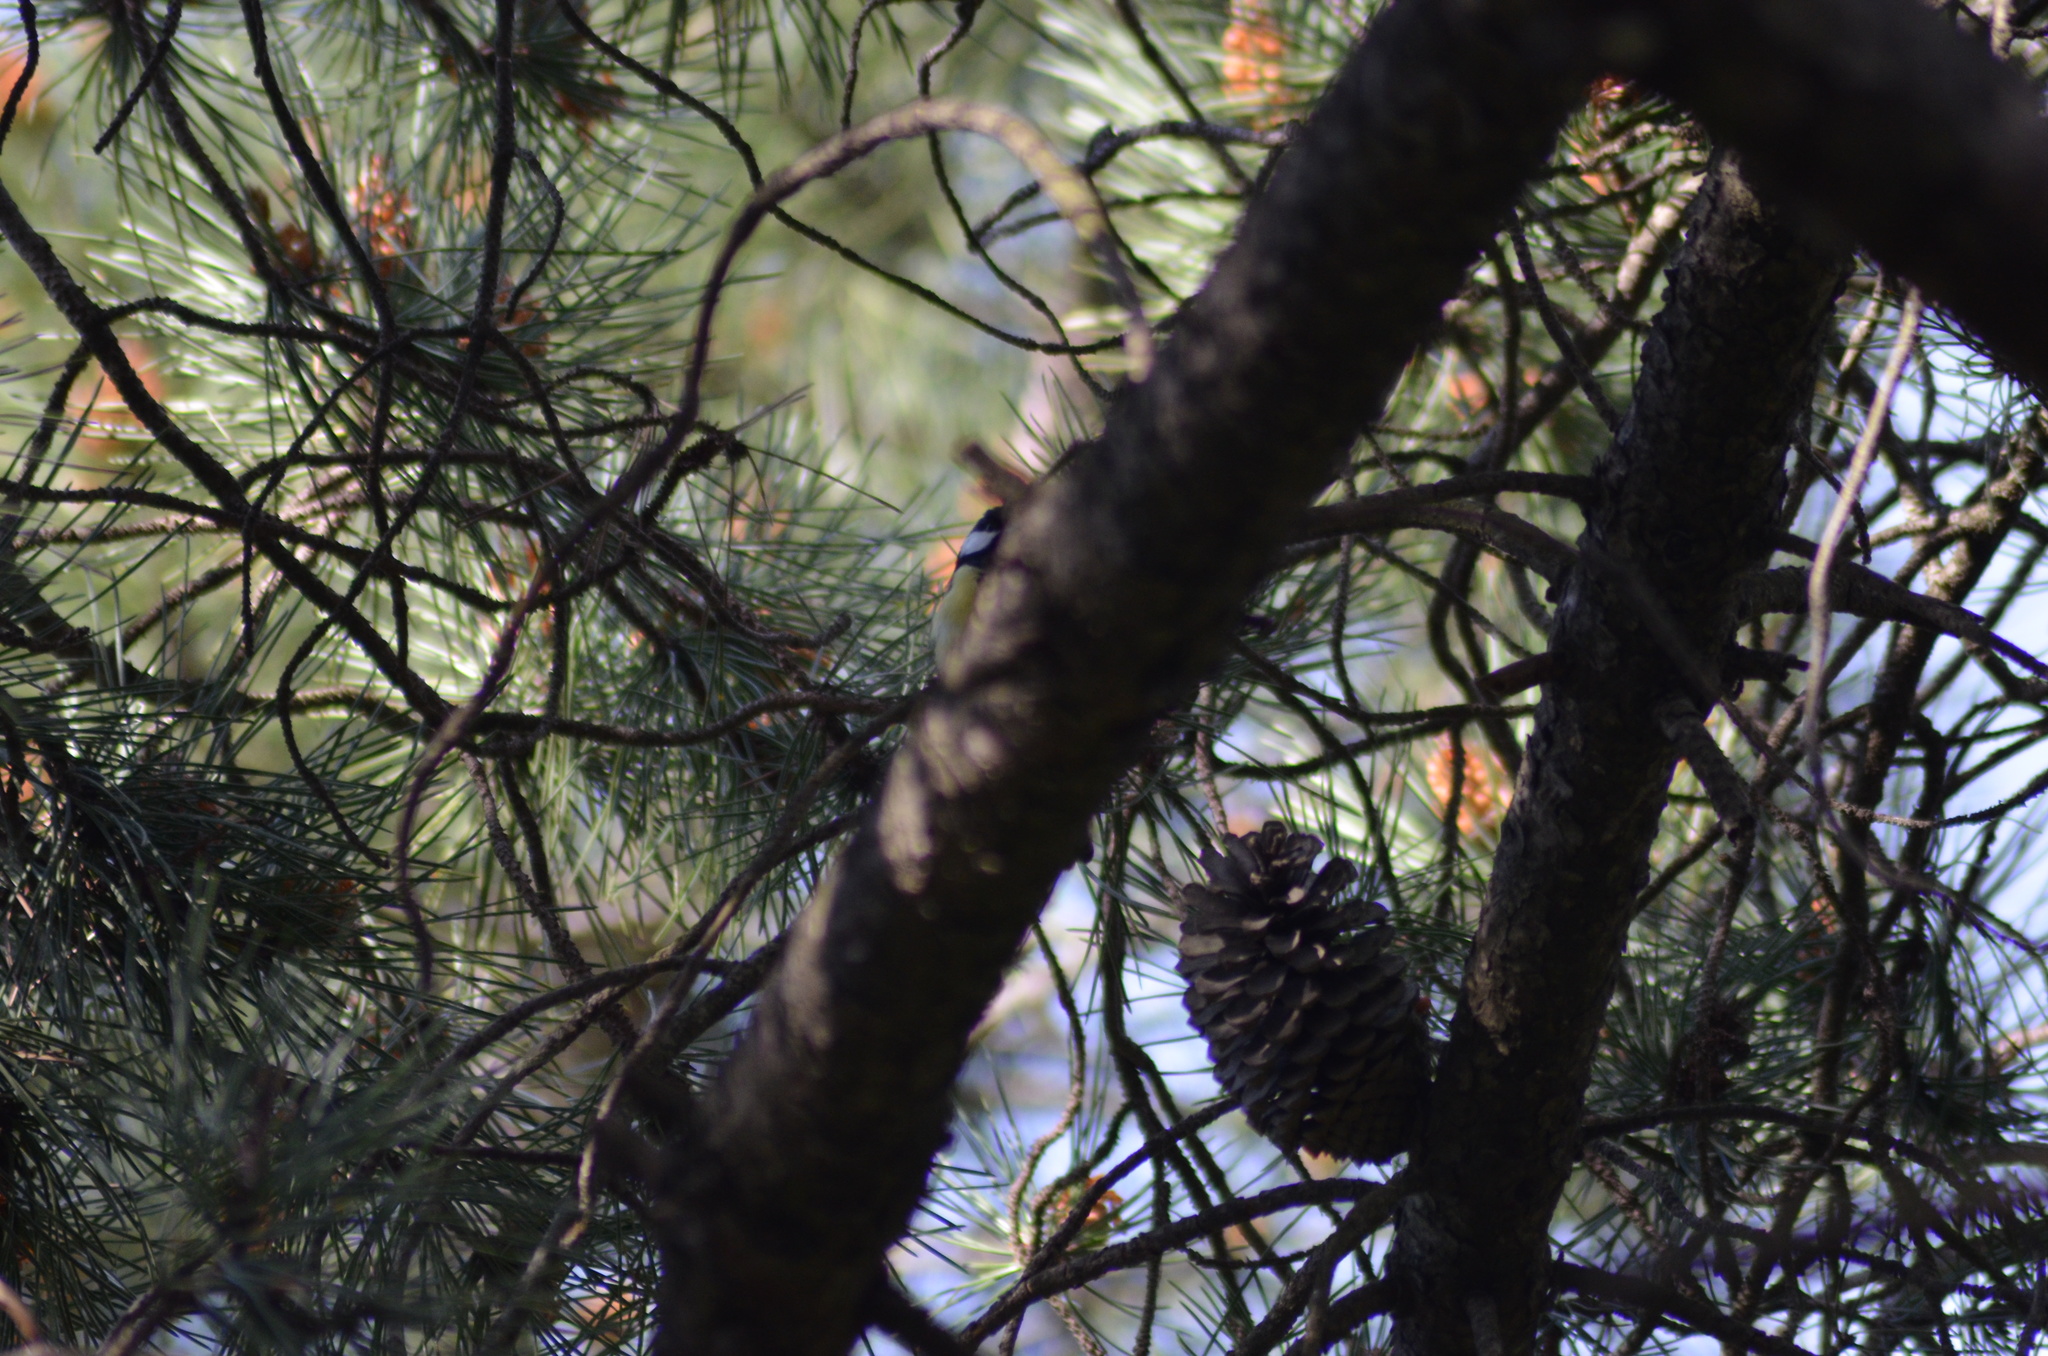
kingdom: Animalia
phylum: Chordata
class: Aves
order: Passeriformes
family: Paridae
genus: Parus
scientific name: Parus major
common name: Great tit
